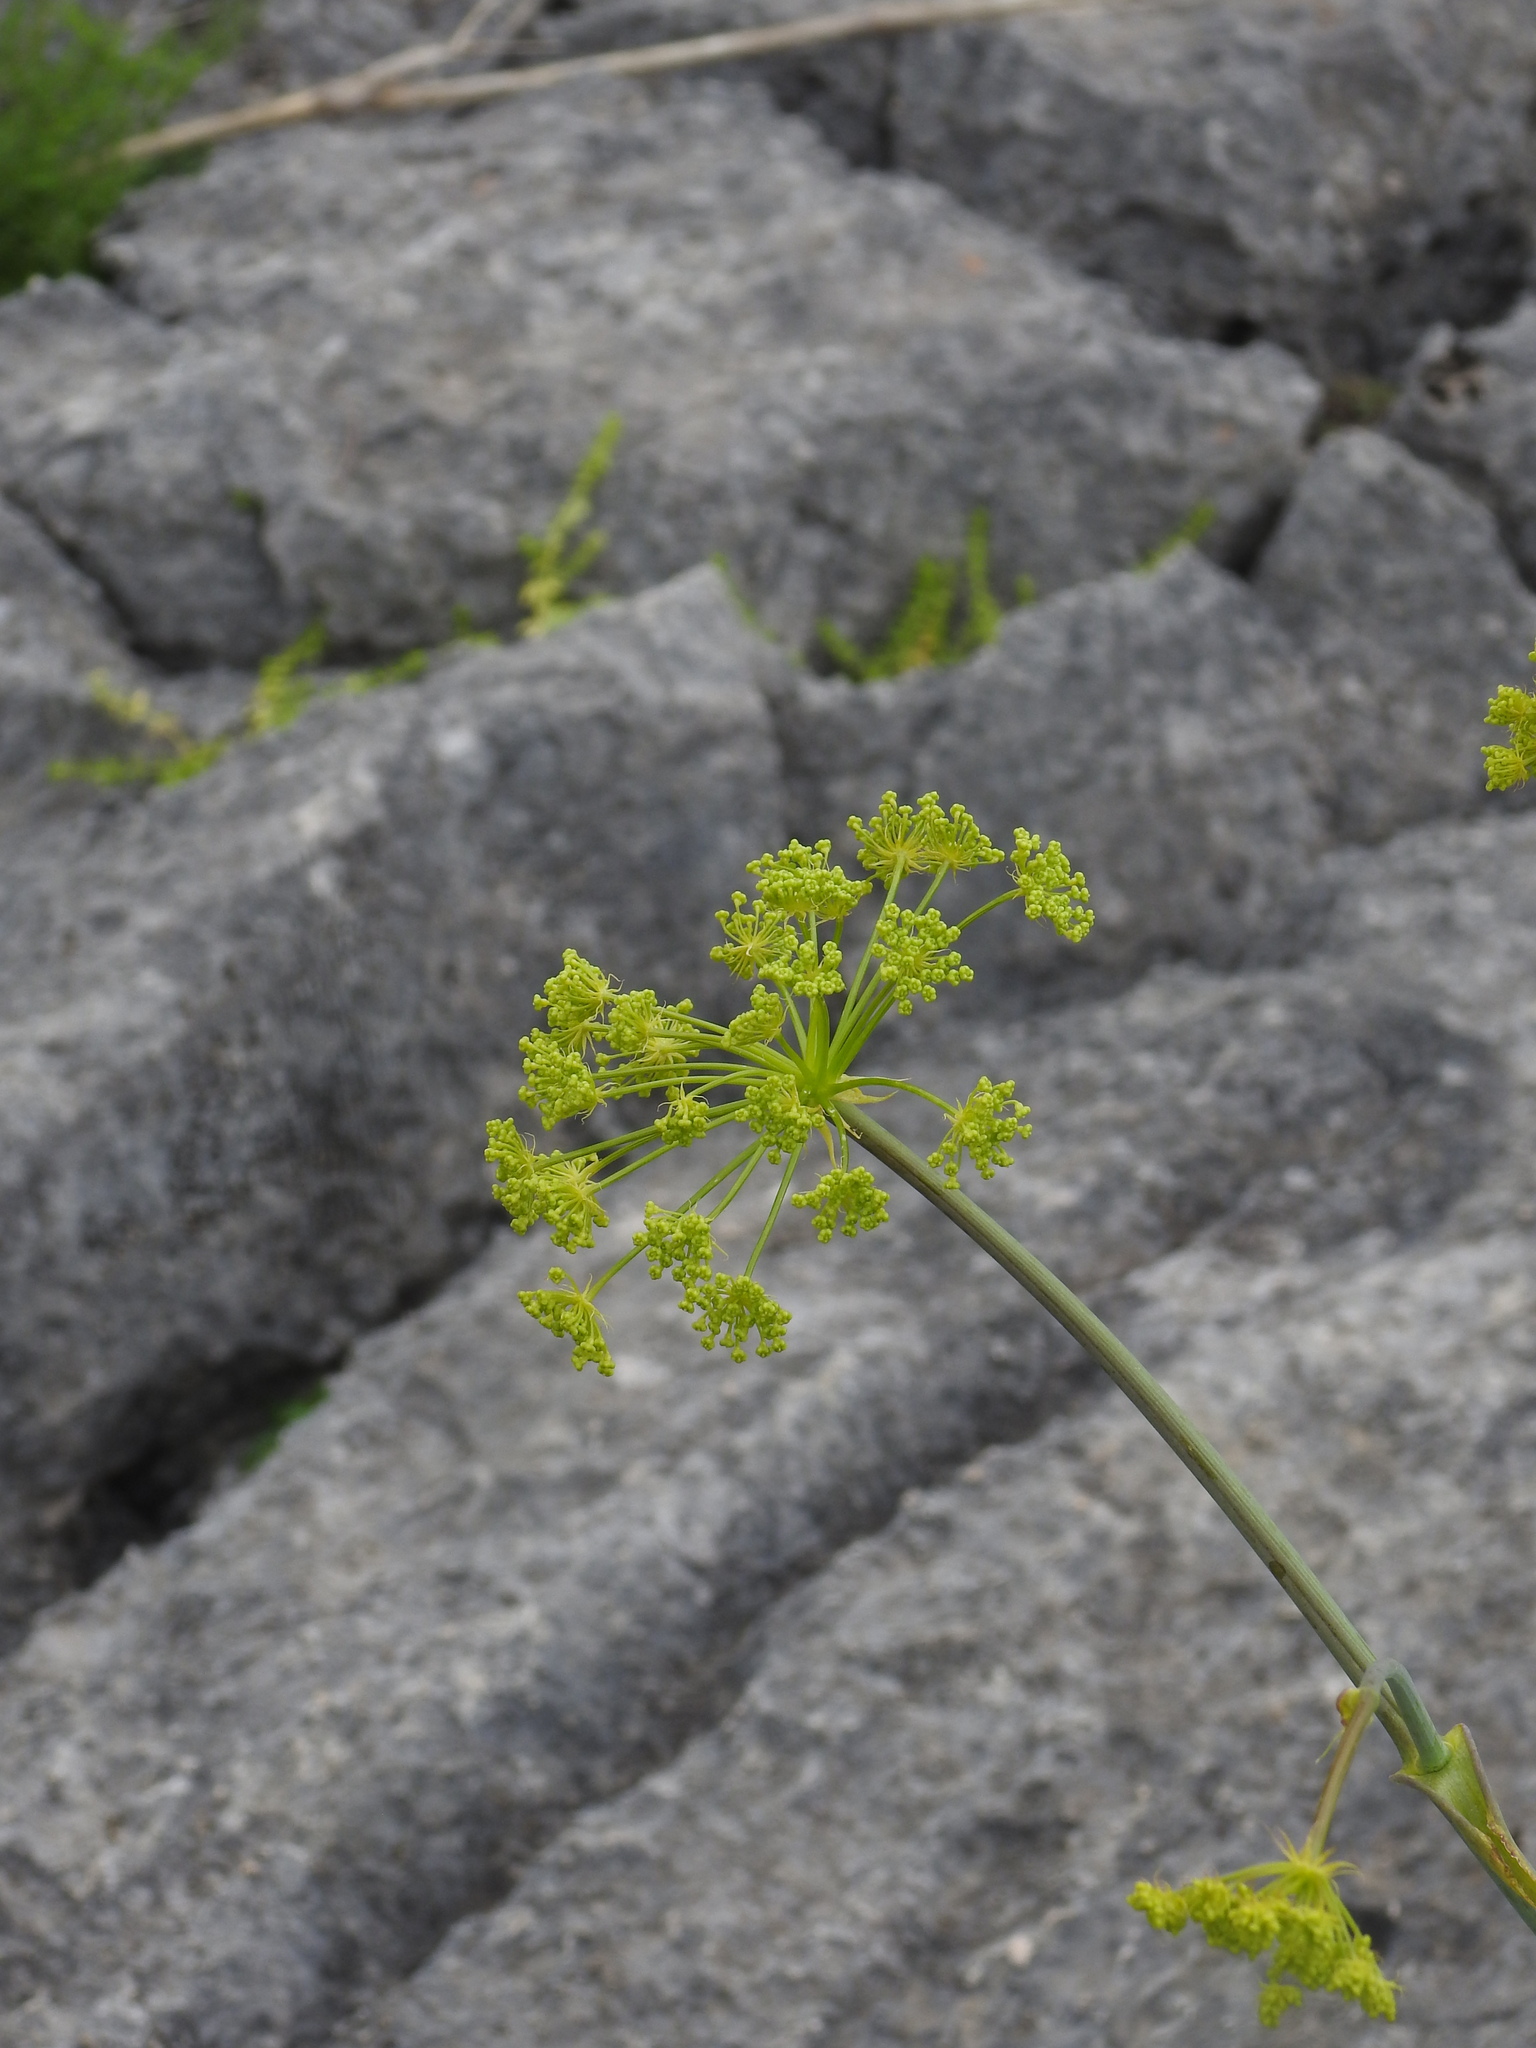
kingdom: Plantae
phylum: Tracheophyta
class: Magnoliopsida
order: Apiales
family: Apiaceae
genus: Thapsia
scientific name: Thapsia tenuifolia
